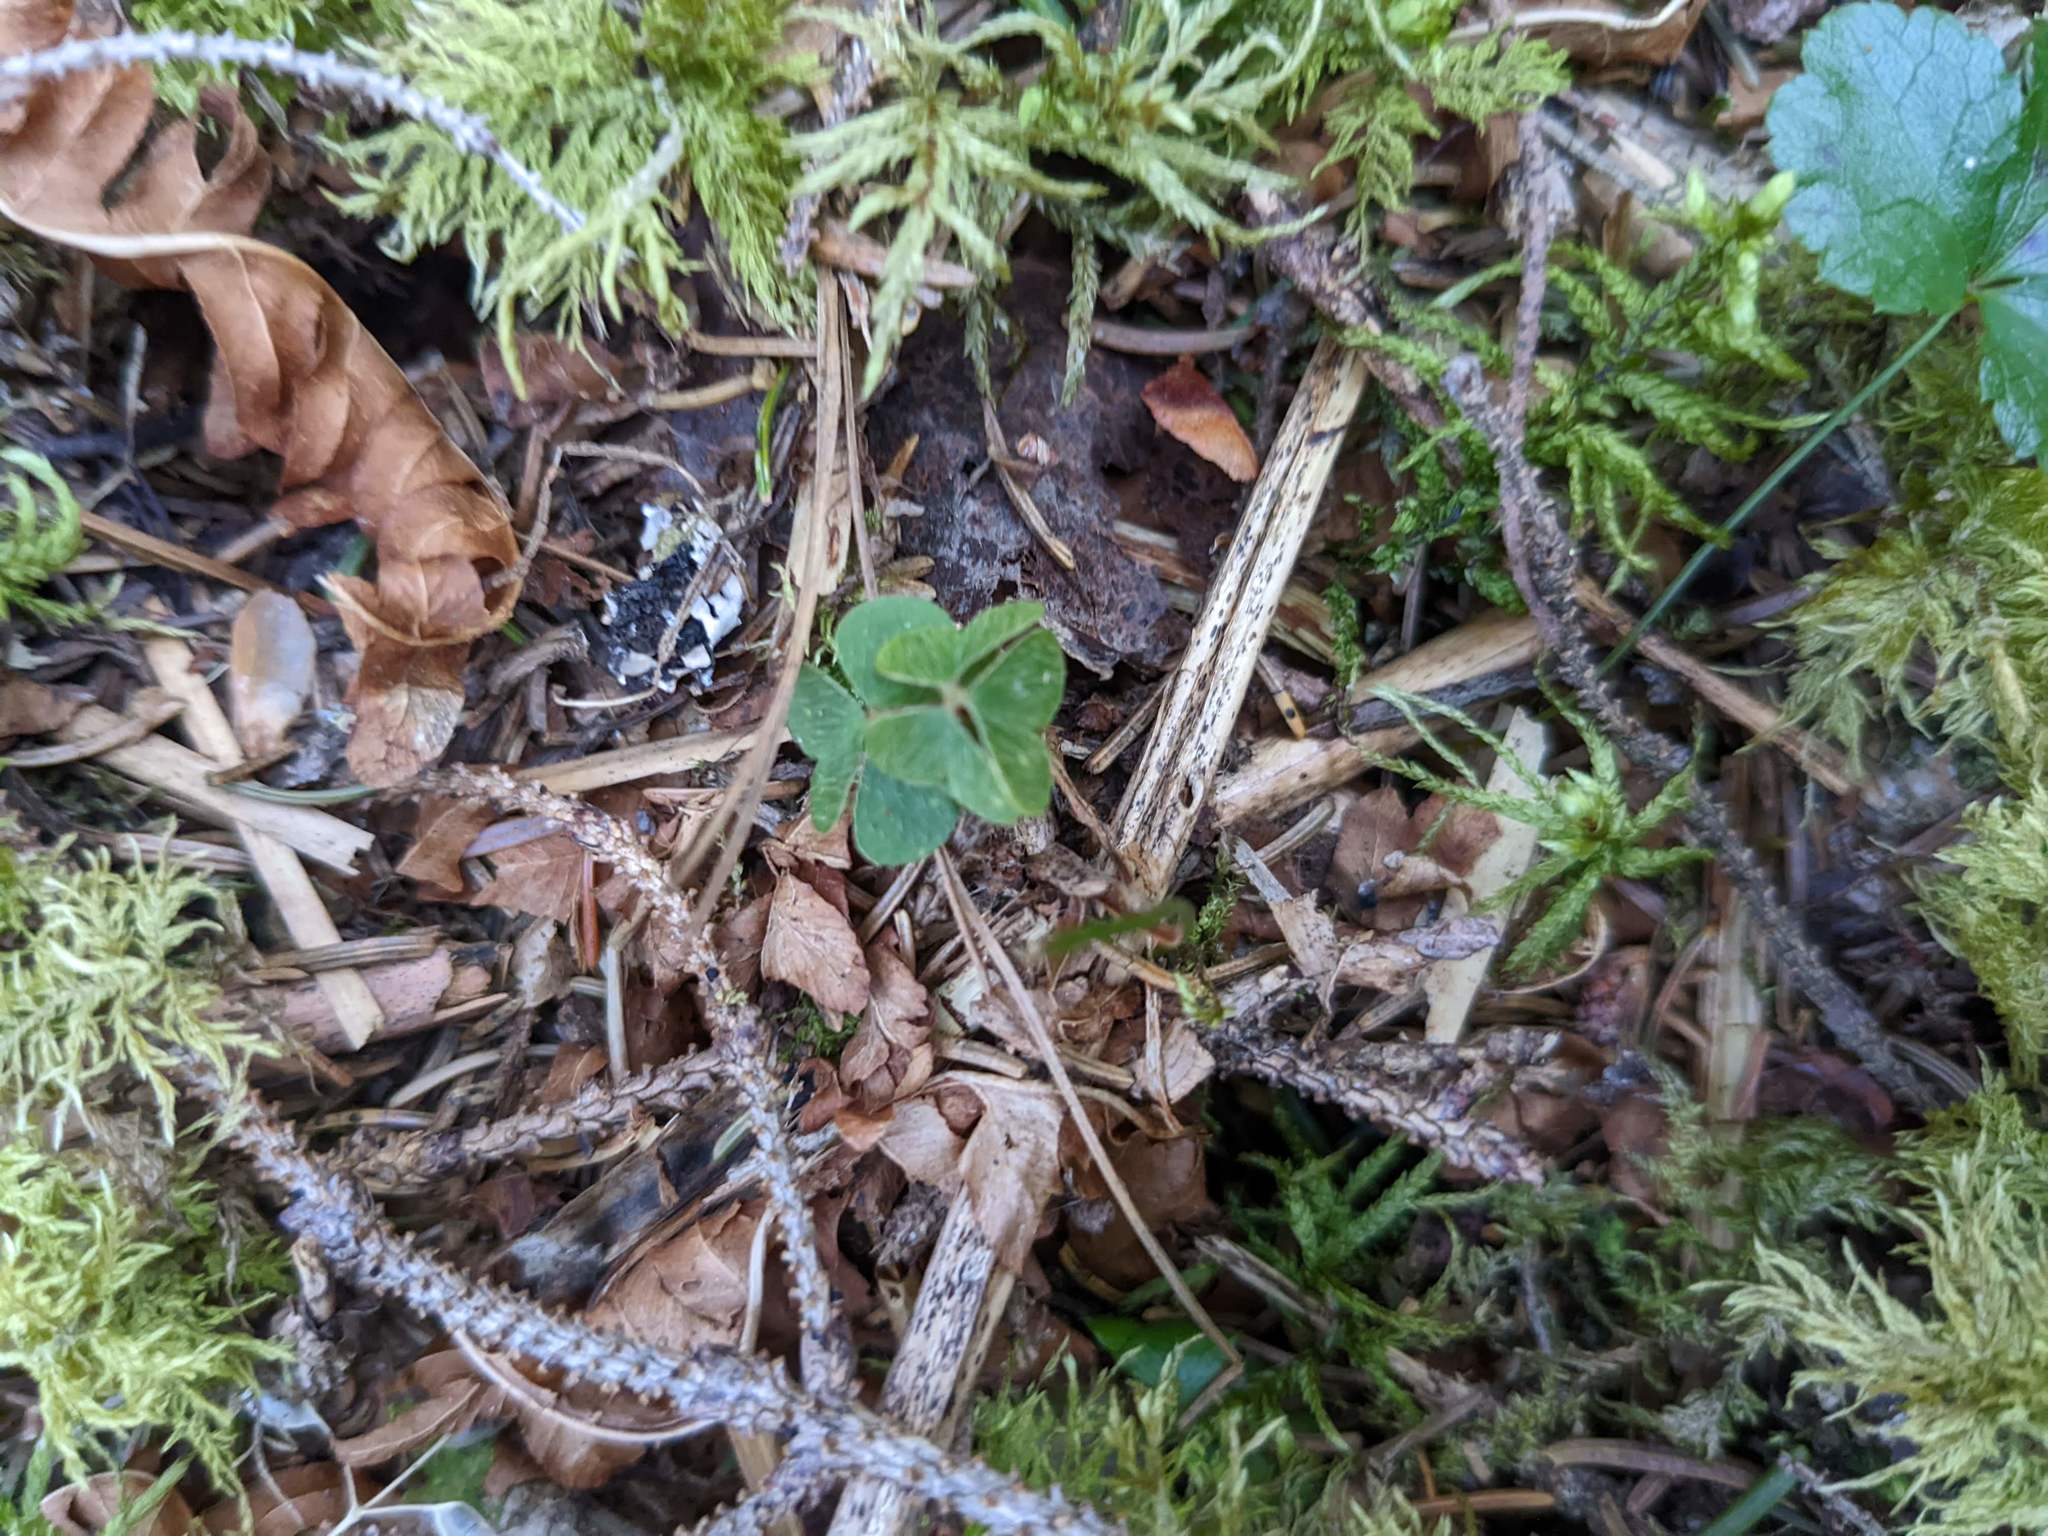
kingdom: Plantae
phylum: Tracheophyta
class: Magnoliopsida
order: Oxalidales
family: Oxalidaceae
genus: Oxalis
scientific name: Oxalis montana
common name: American wood-sorrel
